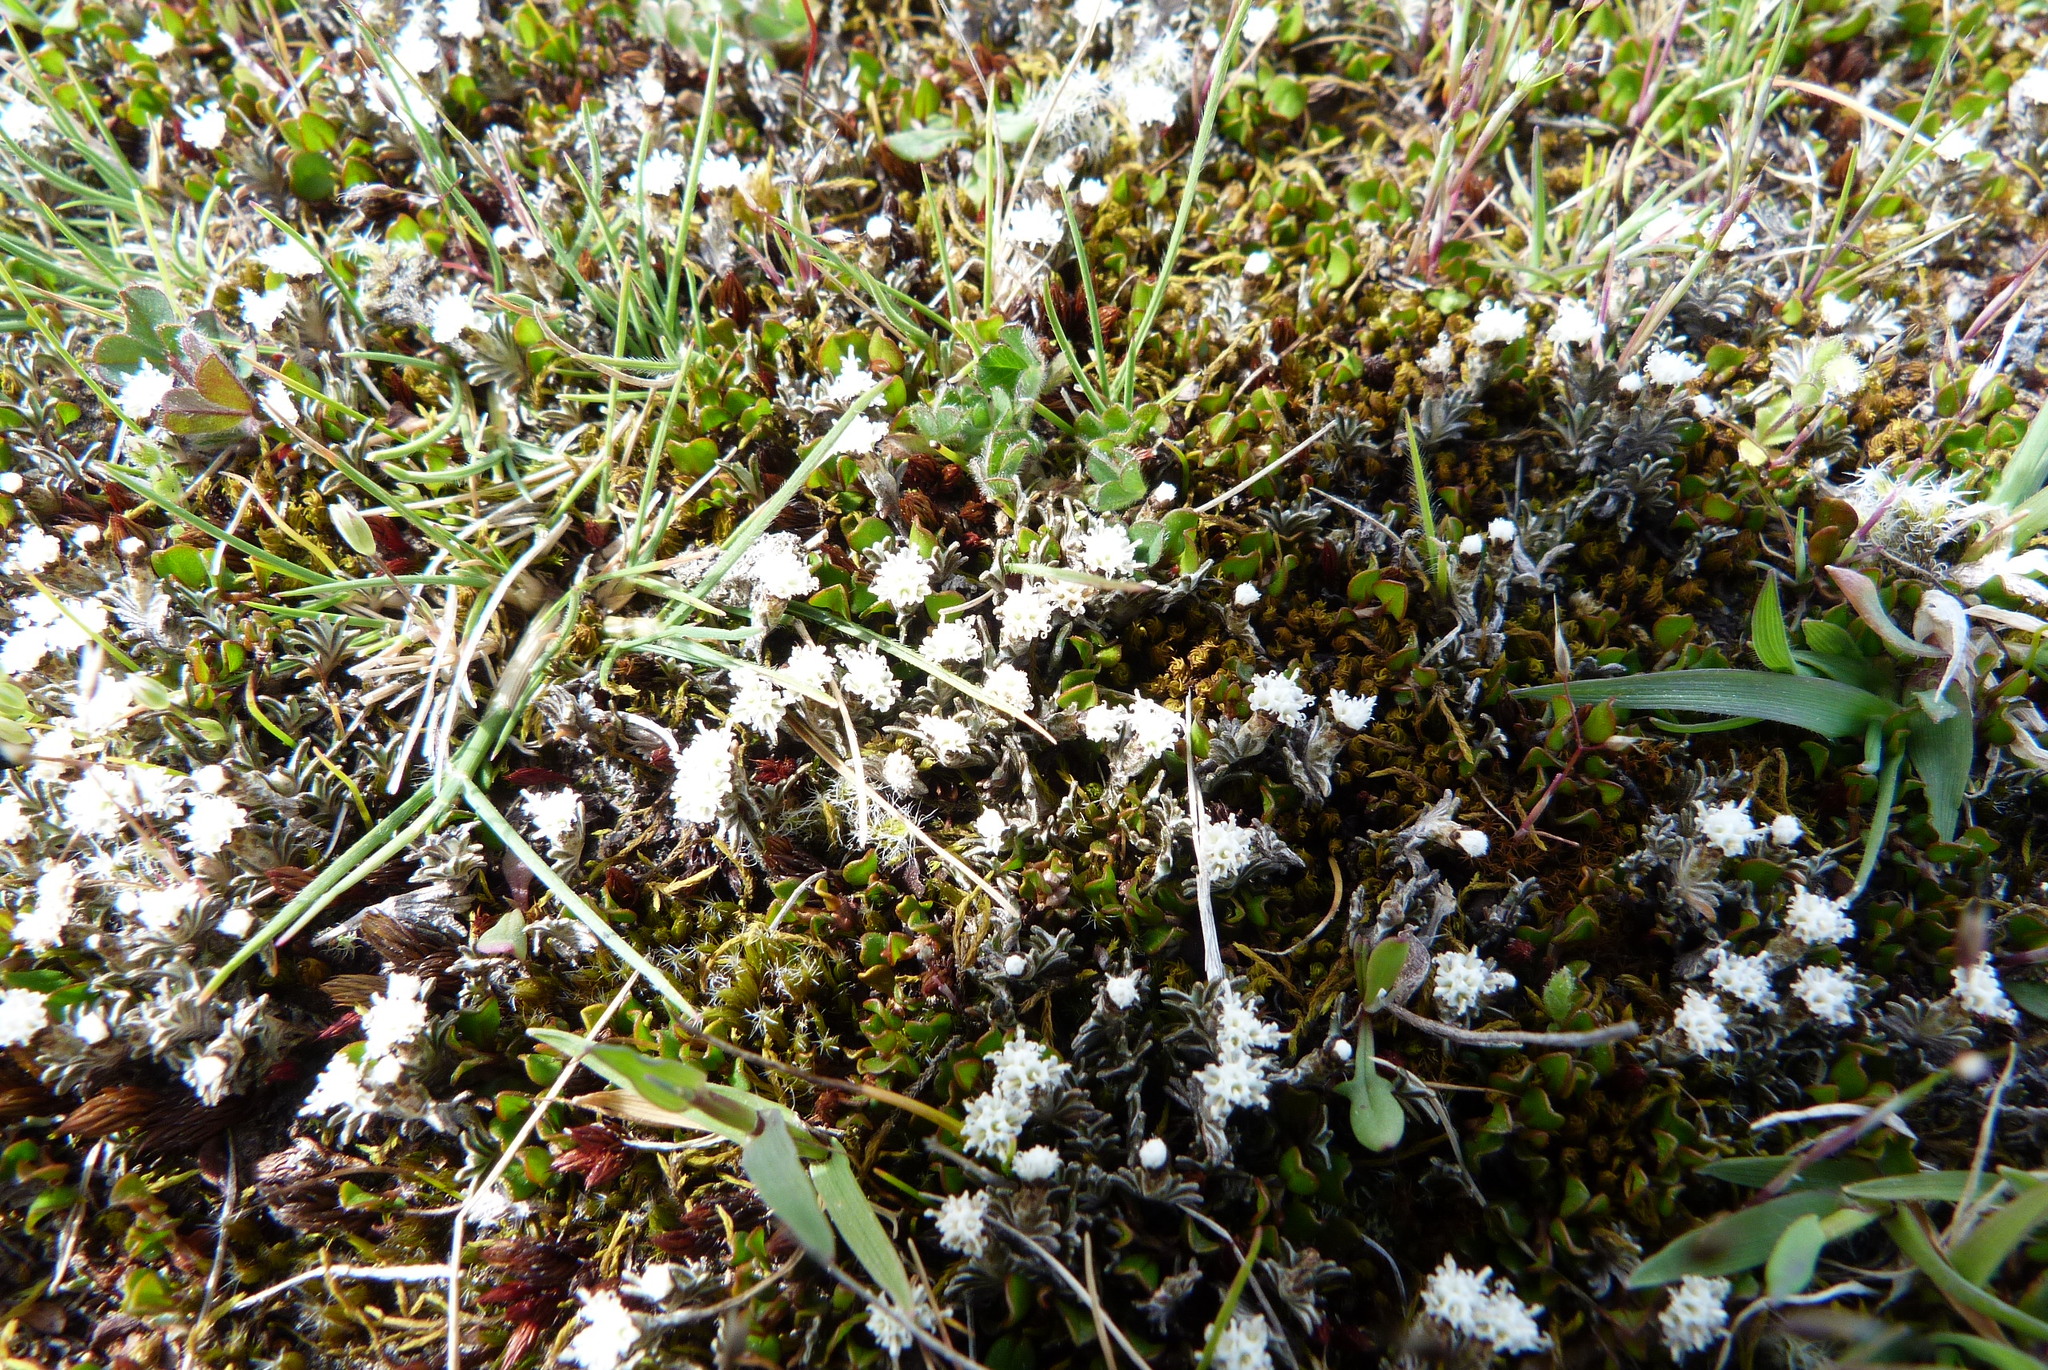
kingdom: Plantae
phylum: Tracheophyta
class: Magnoliopsida
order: Asterales
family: Asteraceae
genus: Raoulia
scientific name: Raoulia monroi
